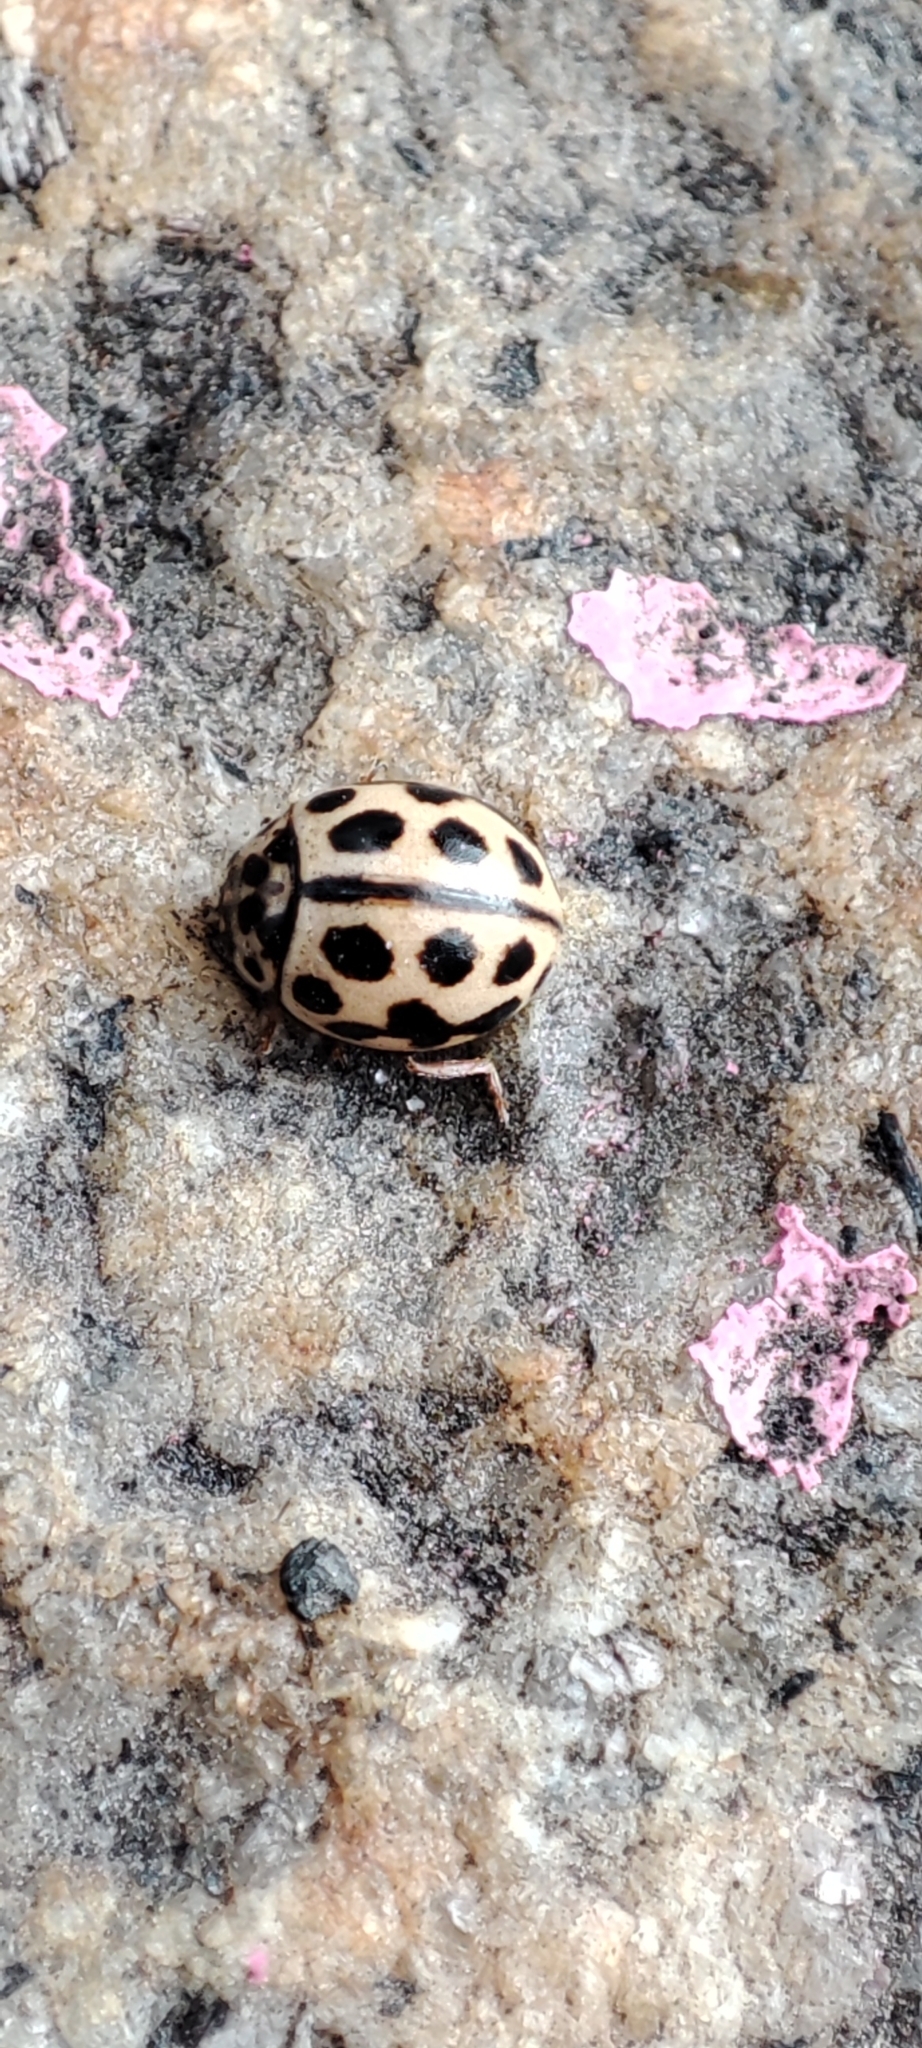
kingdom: Animalia
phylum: Arthropoda
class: Insecta
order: Coleoptera
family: Coccinellidae
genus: Tytthaspis
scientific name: Tytthaspis sedecimpunctata
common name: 16-spot ladybird
